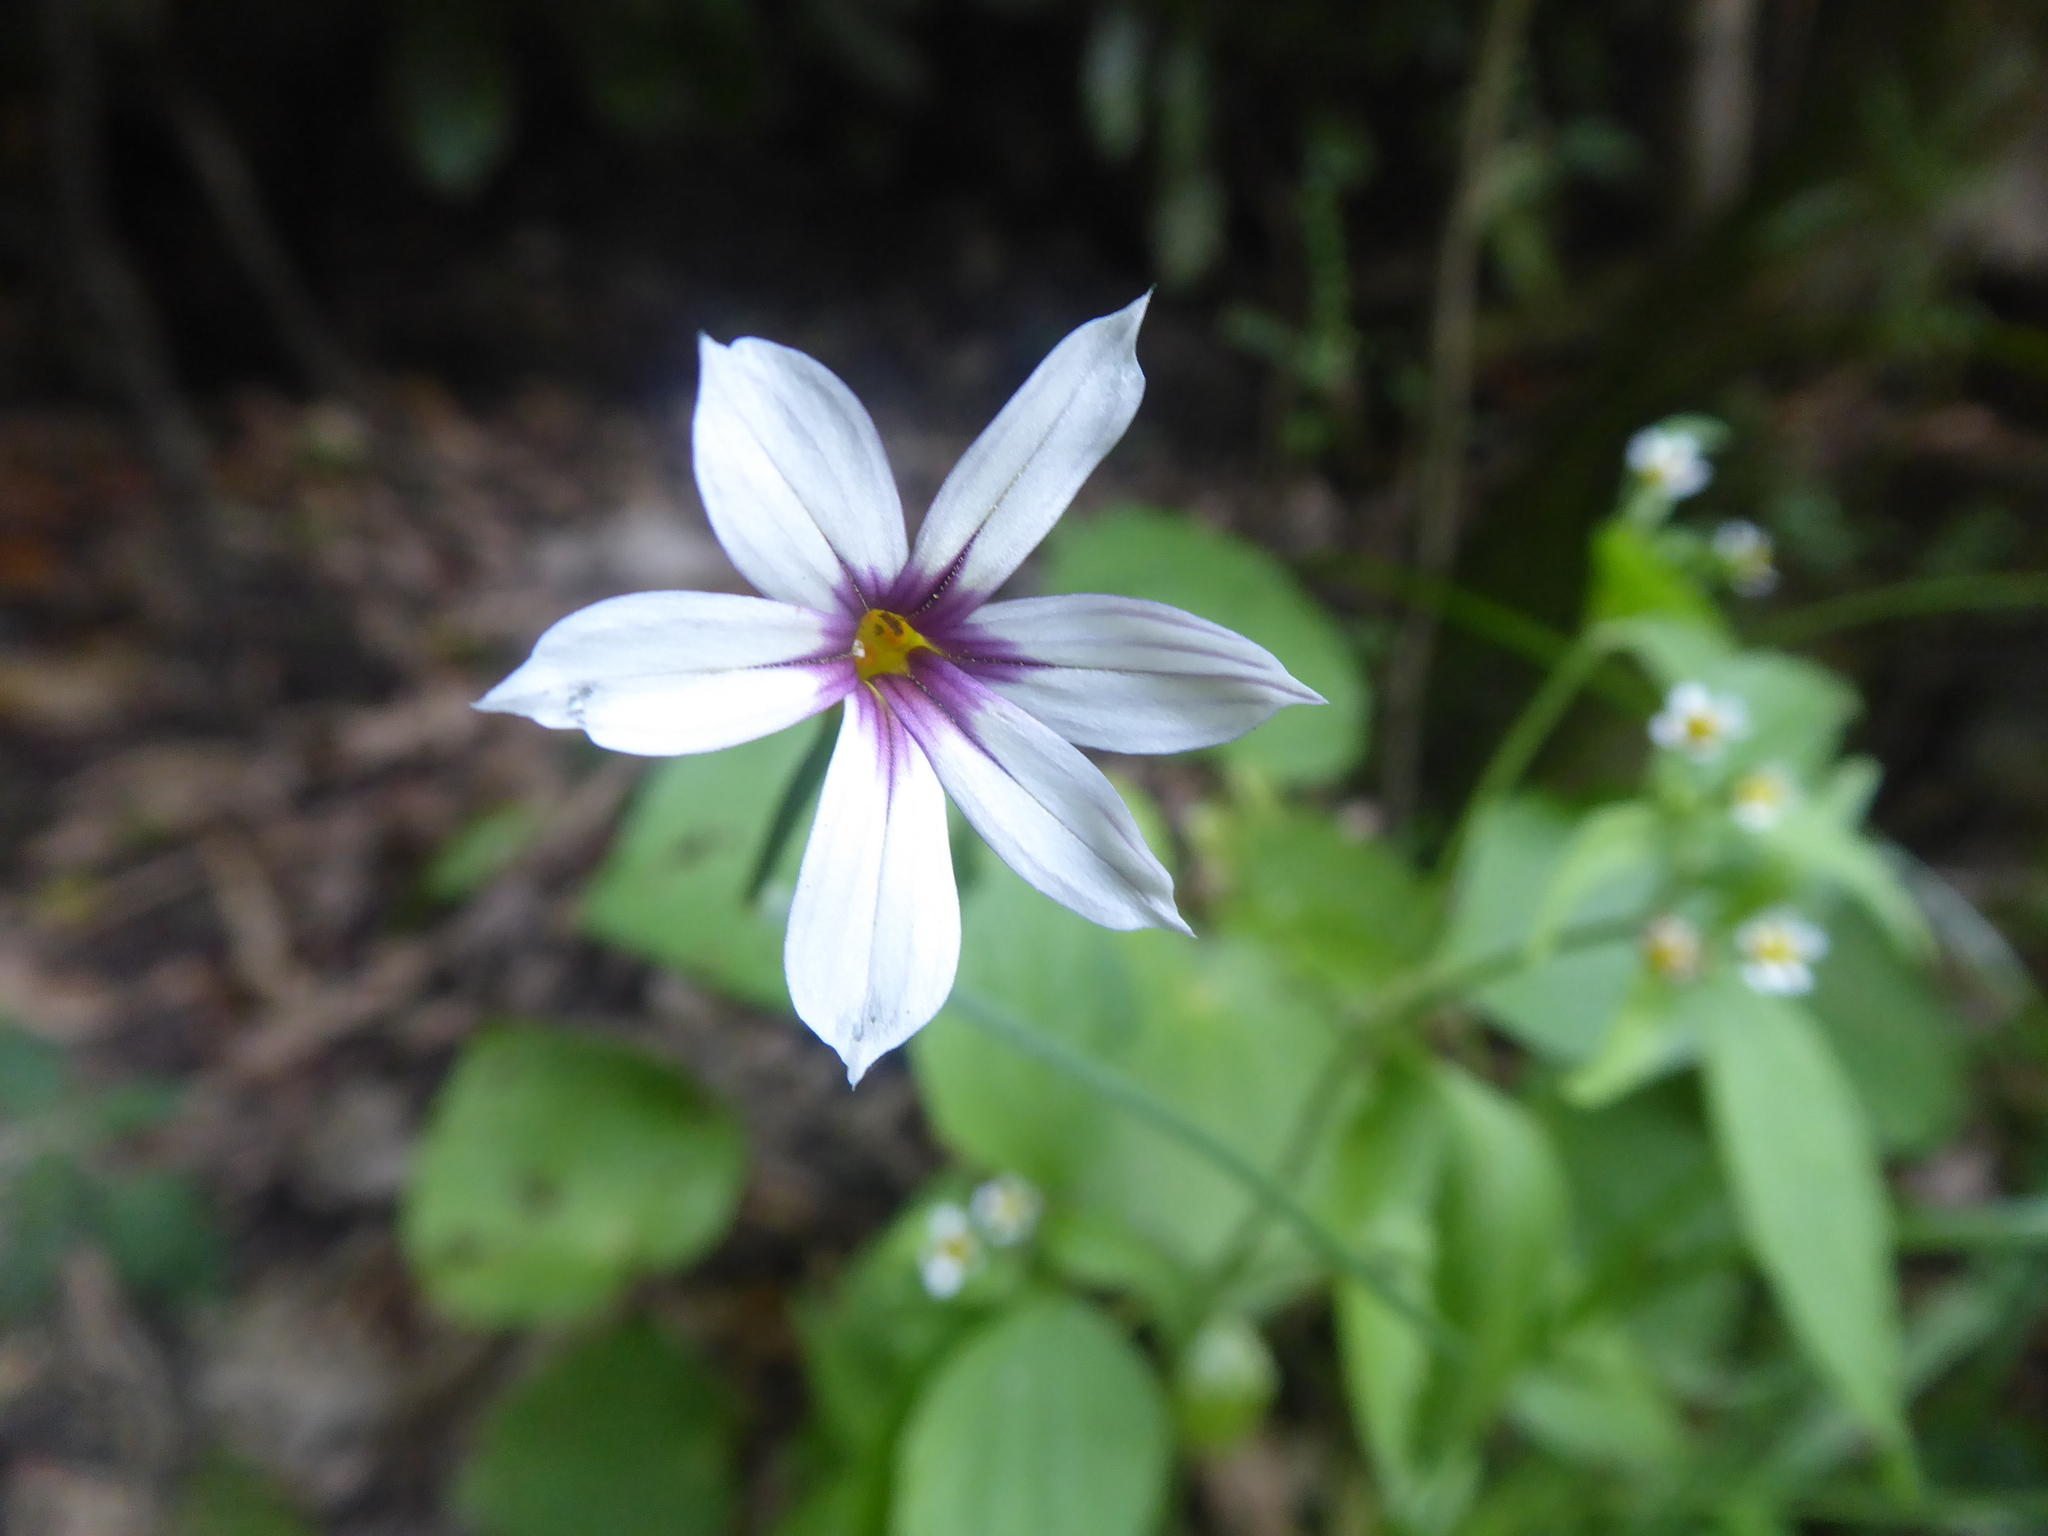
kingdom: Plantae
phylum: Tracheophyta
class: Liliopsida
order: Asparagales
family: Iridaceae
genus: Sisyrinchium
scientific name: Sisyrinchium micranthum
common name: Bermuda pigroot
